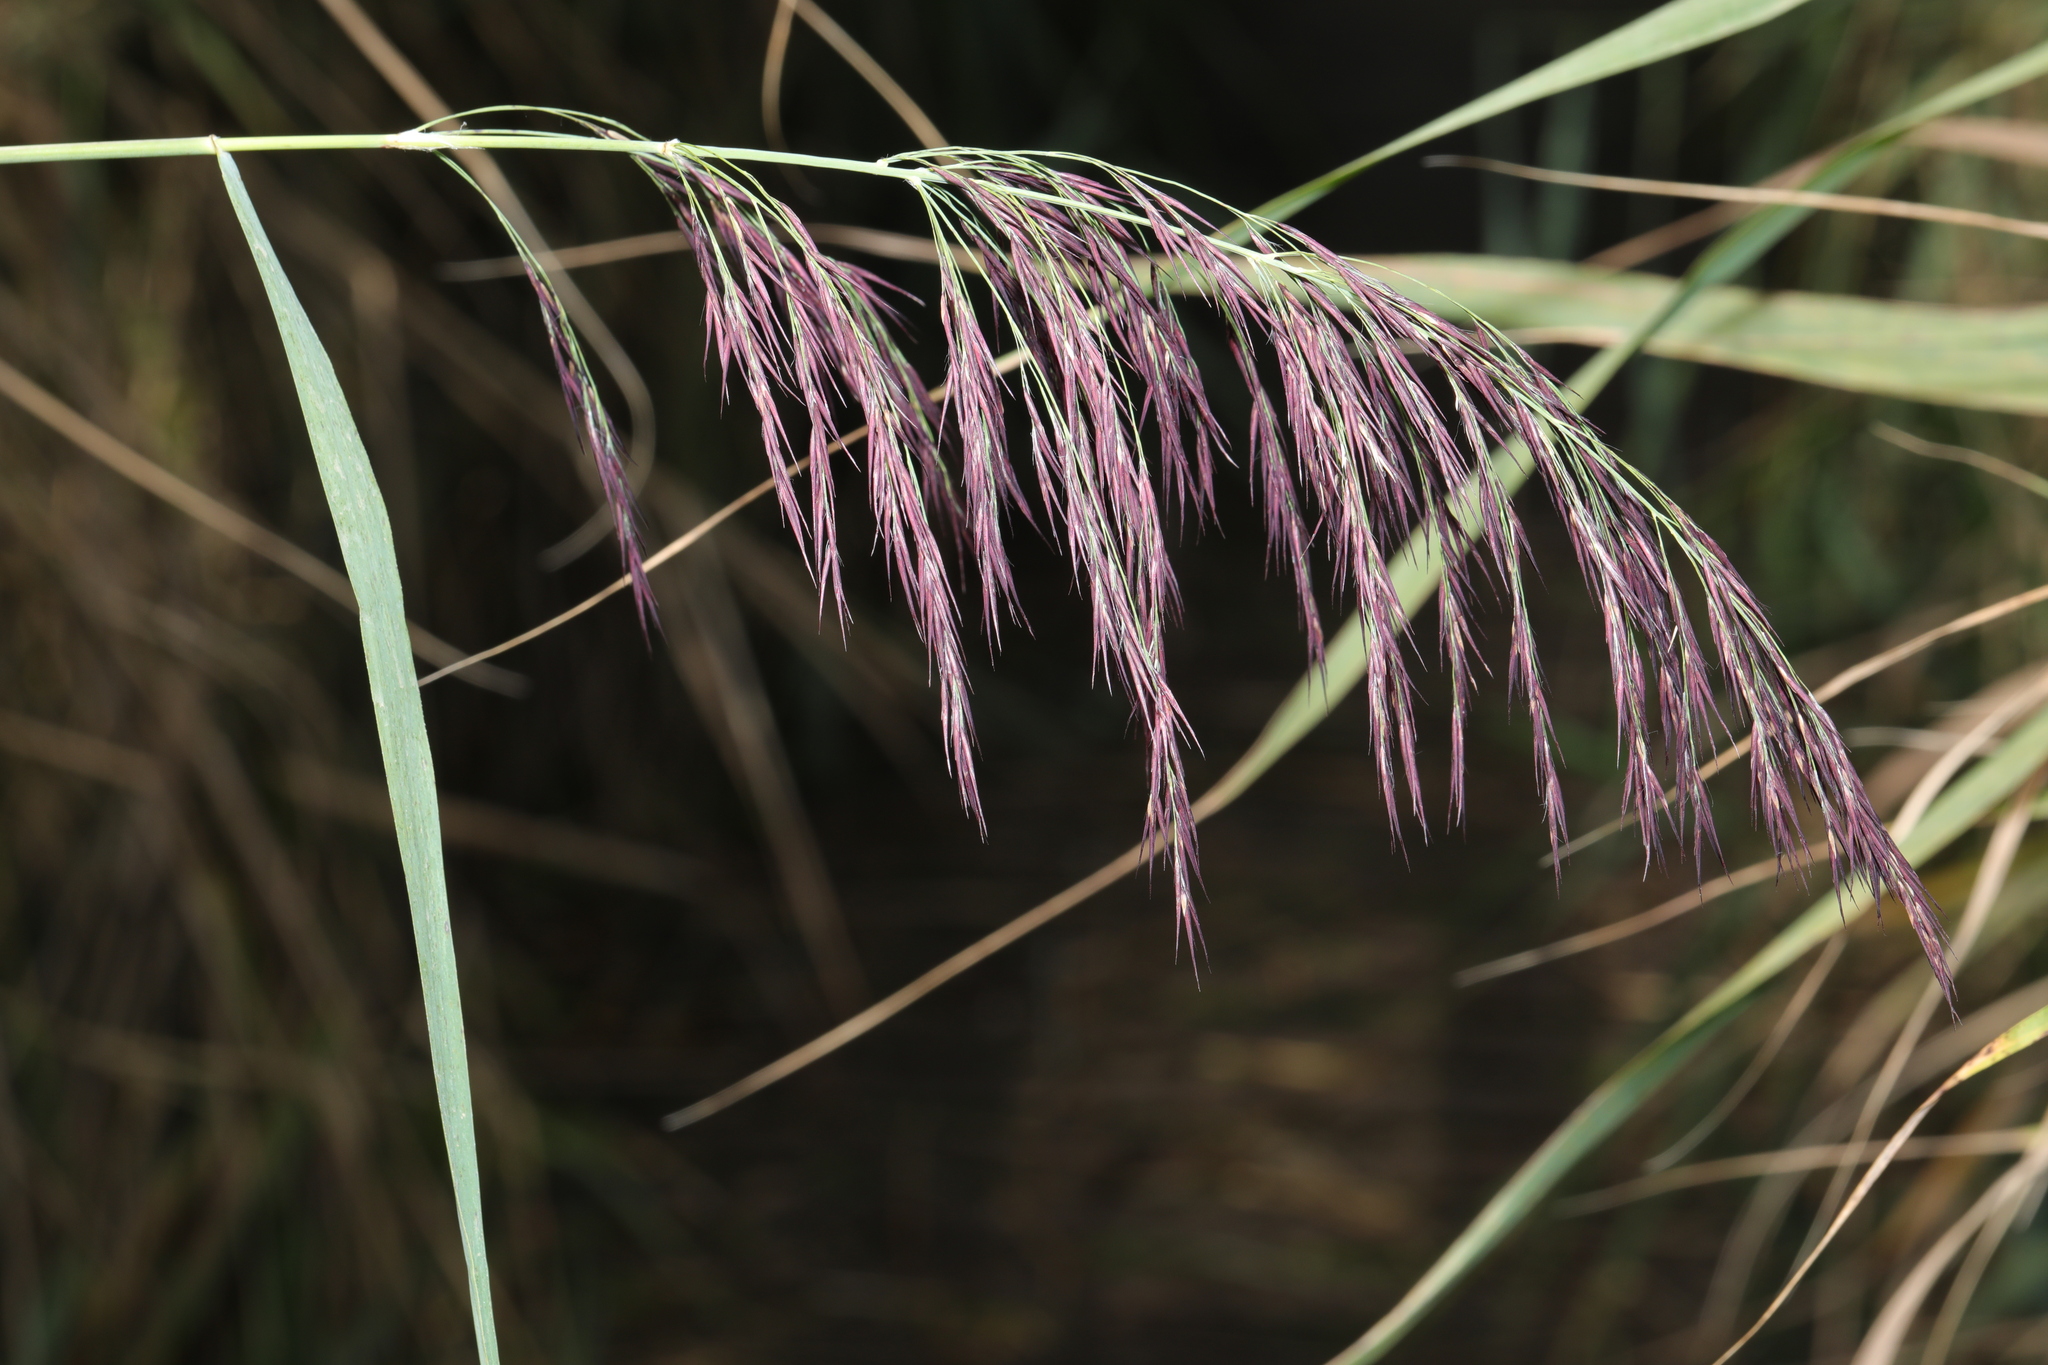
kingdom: Plantae
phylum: Tracheophyta
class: Liliopsida
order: Poales
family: Poaceae
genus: Phragmites
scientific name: Phragmites australis
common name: Common reed
